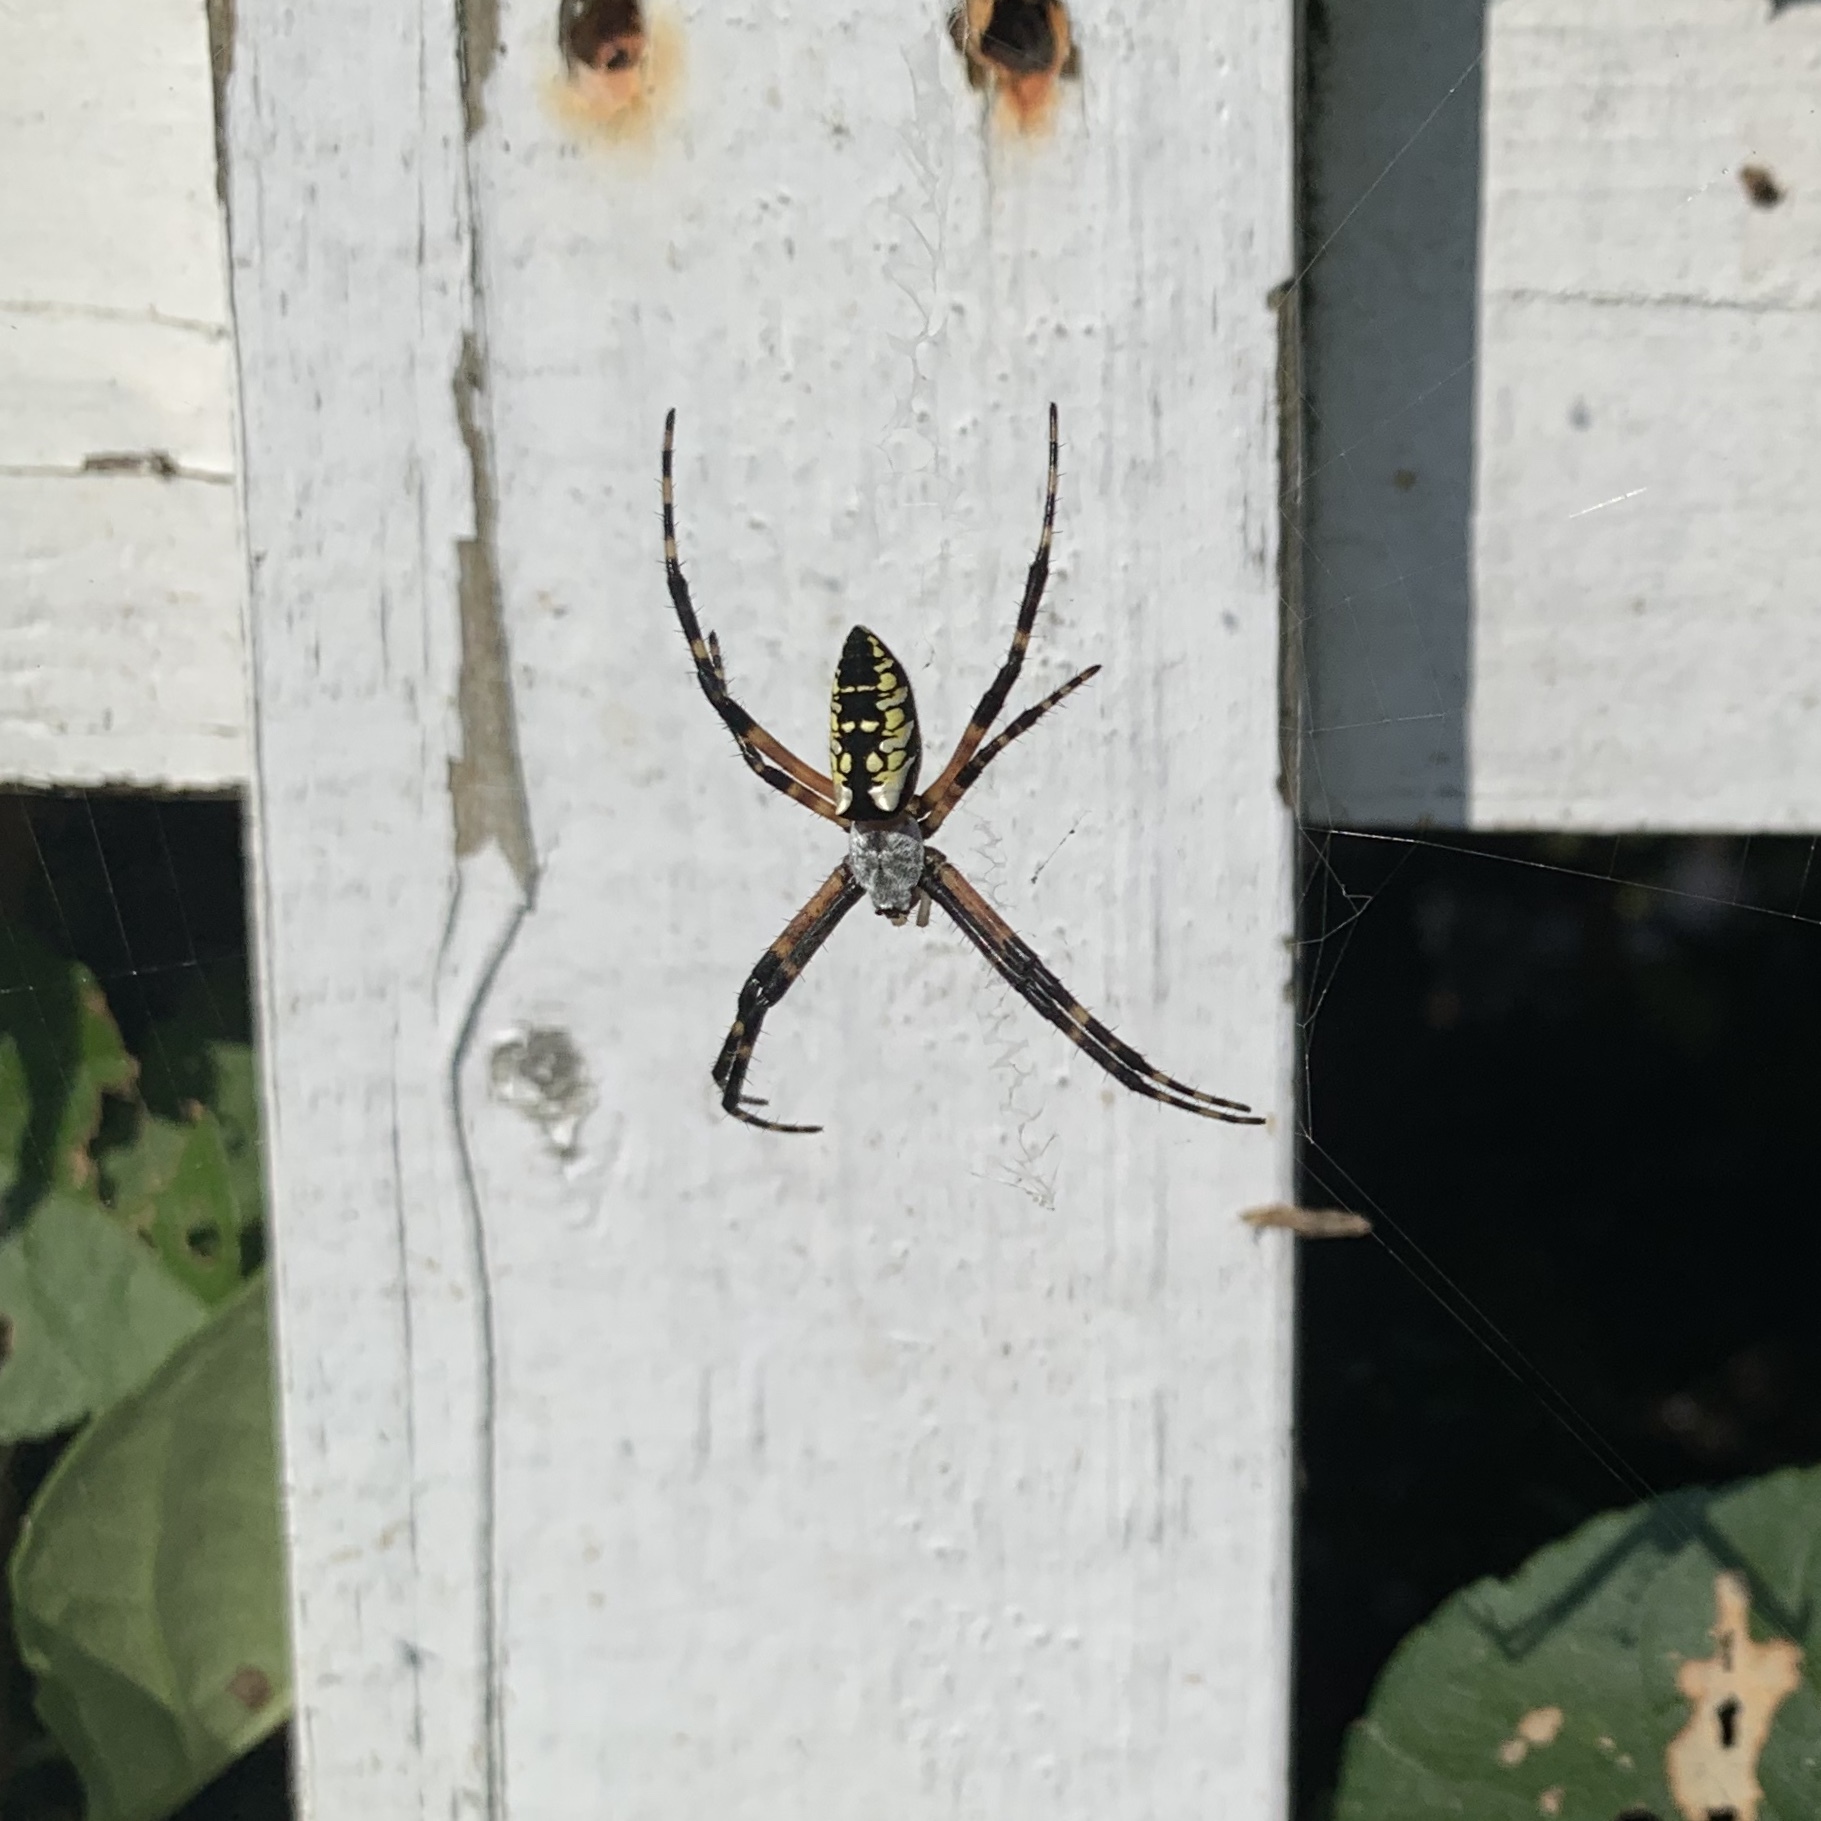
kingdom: Animalia
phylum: Arthropoda
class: Arachnida
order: Araneae
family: Araneidae
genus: Argiope
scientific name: Argiope aurantia
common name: Orb weavers
